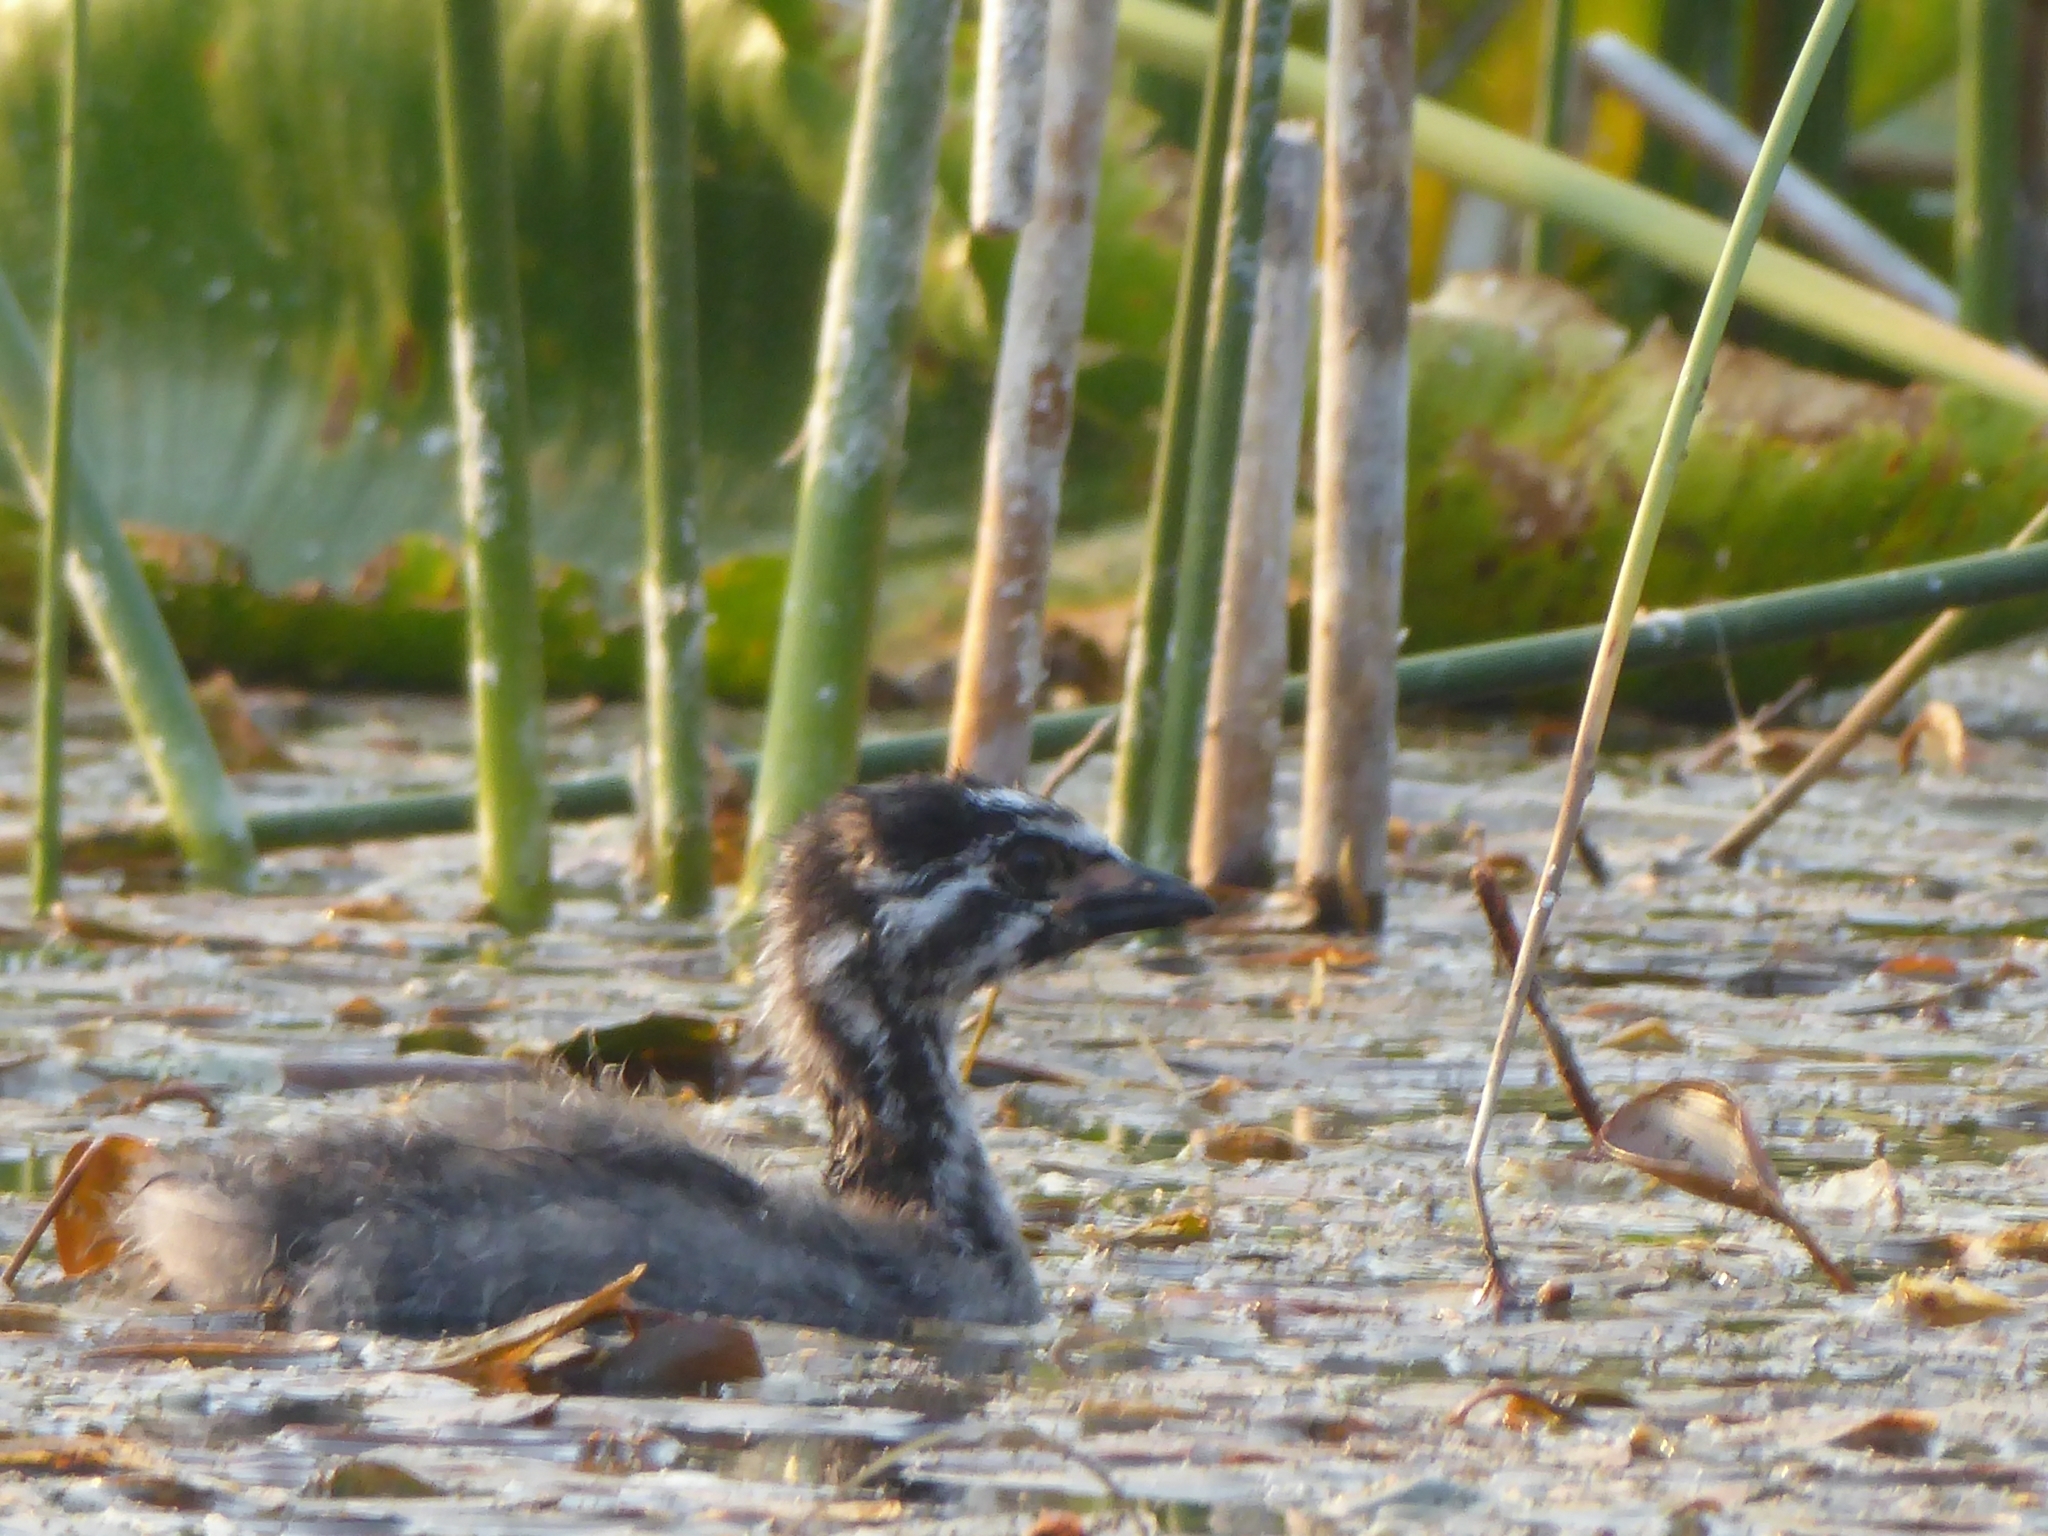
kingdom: Animalia
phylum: Chordata
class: Aves
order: Podicipediformes
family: Podicipedidae
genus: Podilymbus
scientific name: Podilymbus podiceps
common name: Pied-billed grebe
